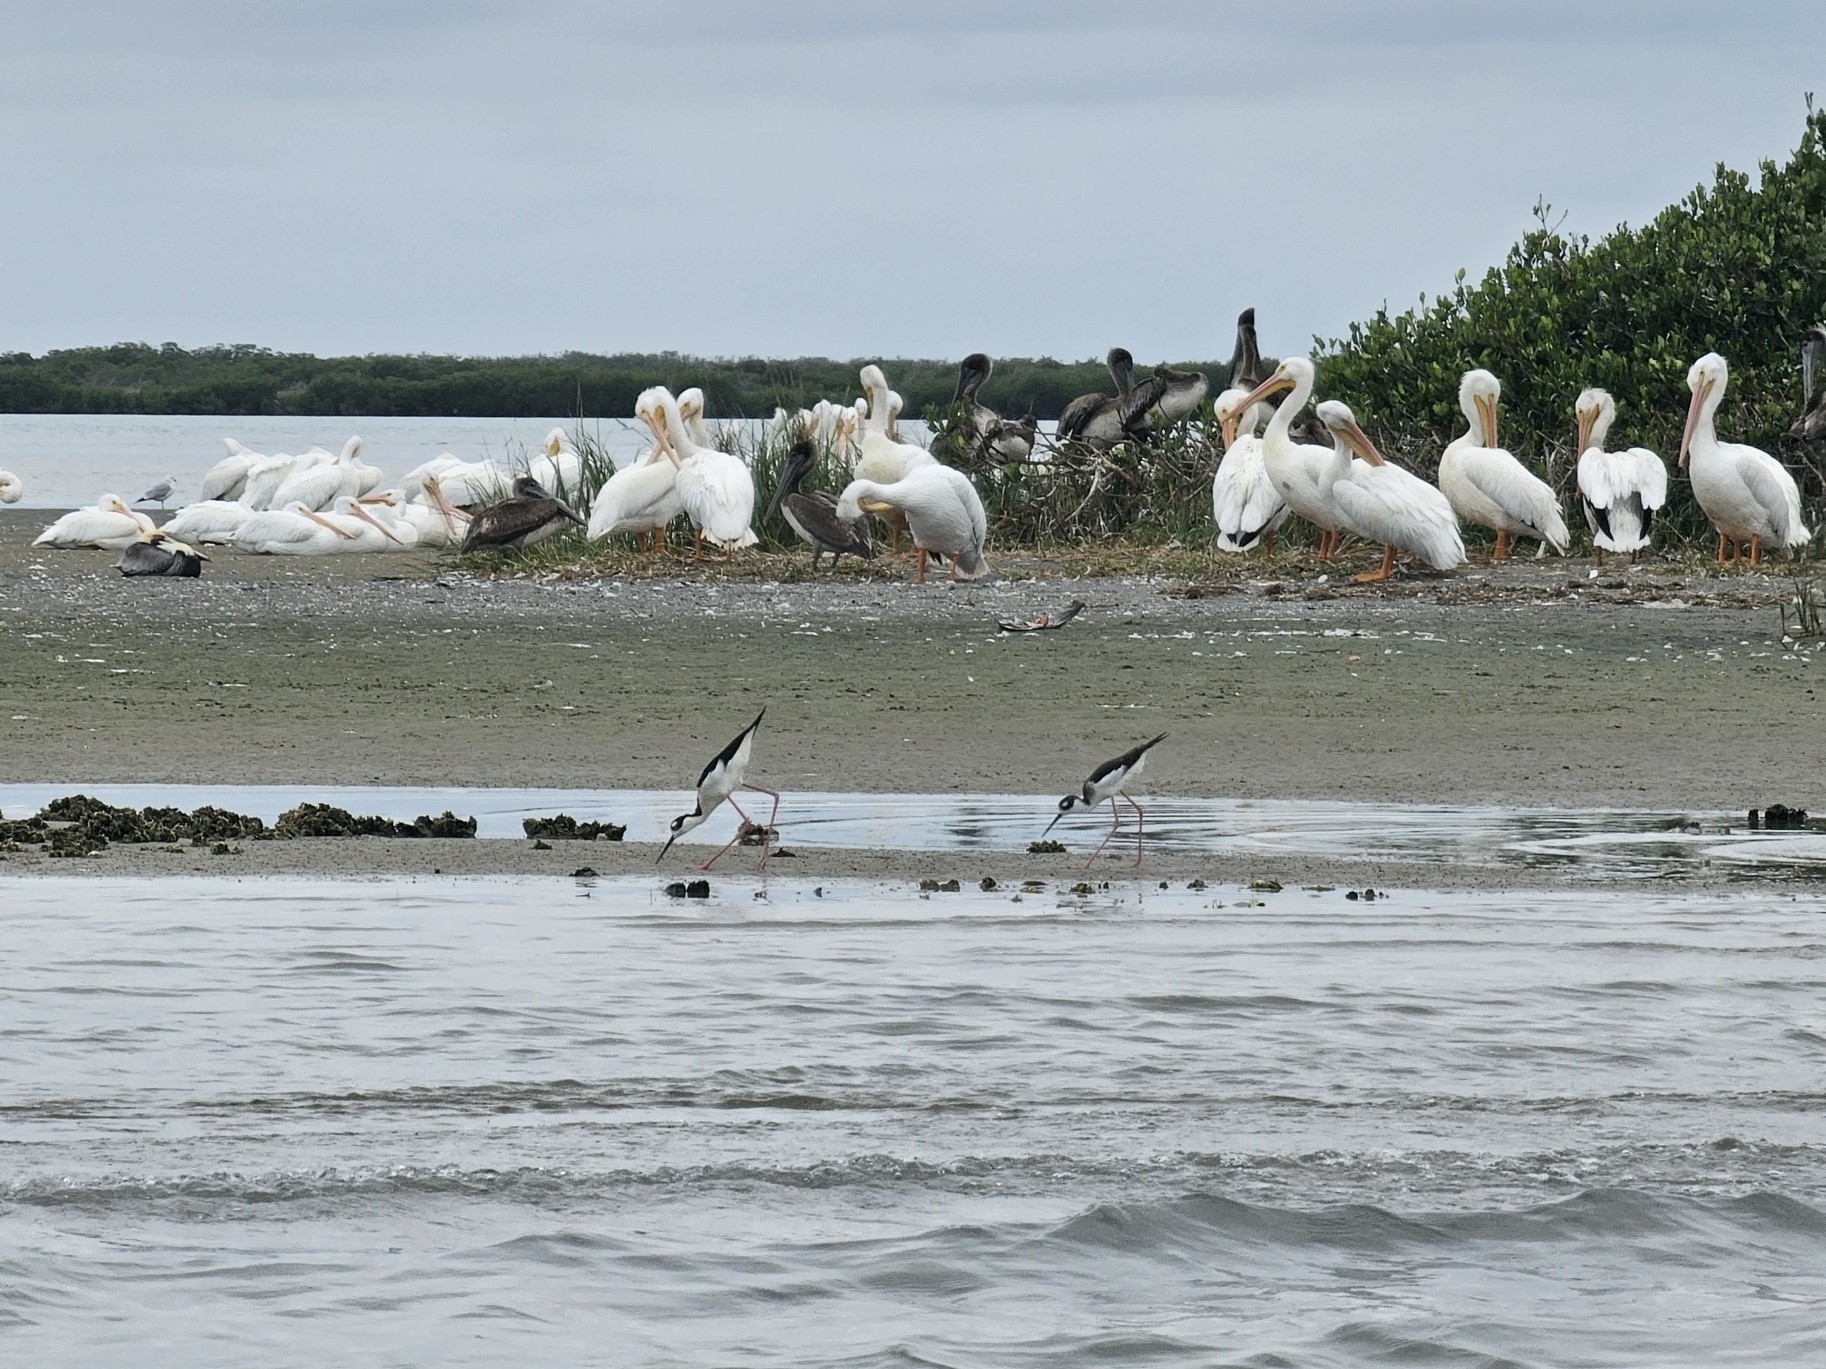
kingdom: Animalia
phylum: Chordata
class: Aves
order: Charadriiformes
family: Recurvirostridae
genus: Himantopus
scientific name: Himantopus mexicanus
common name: Black-necked stilt
